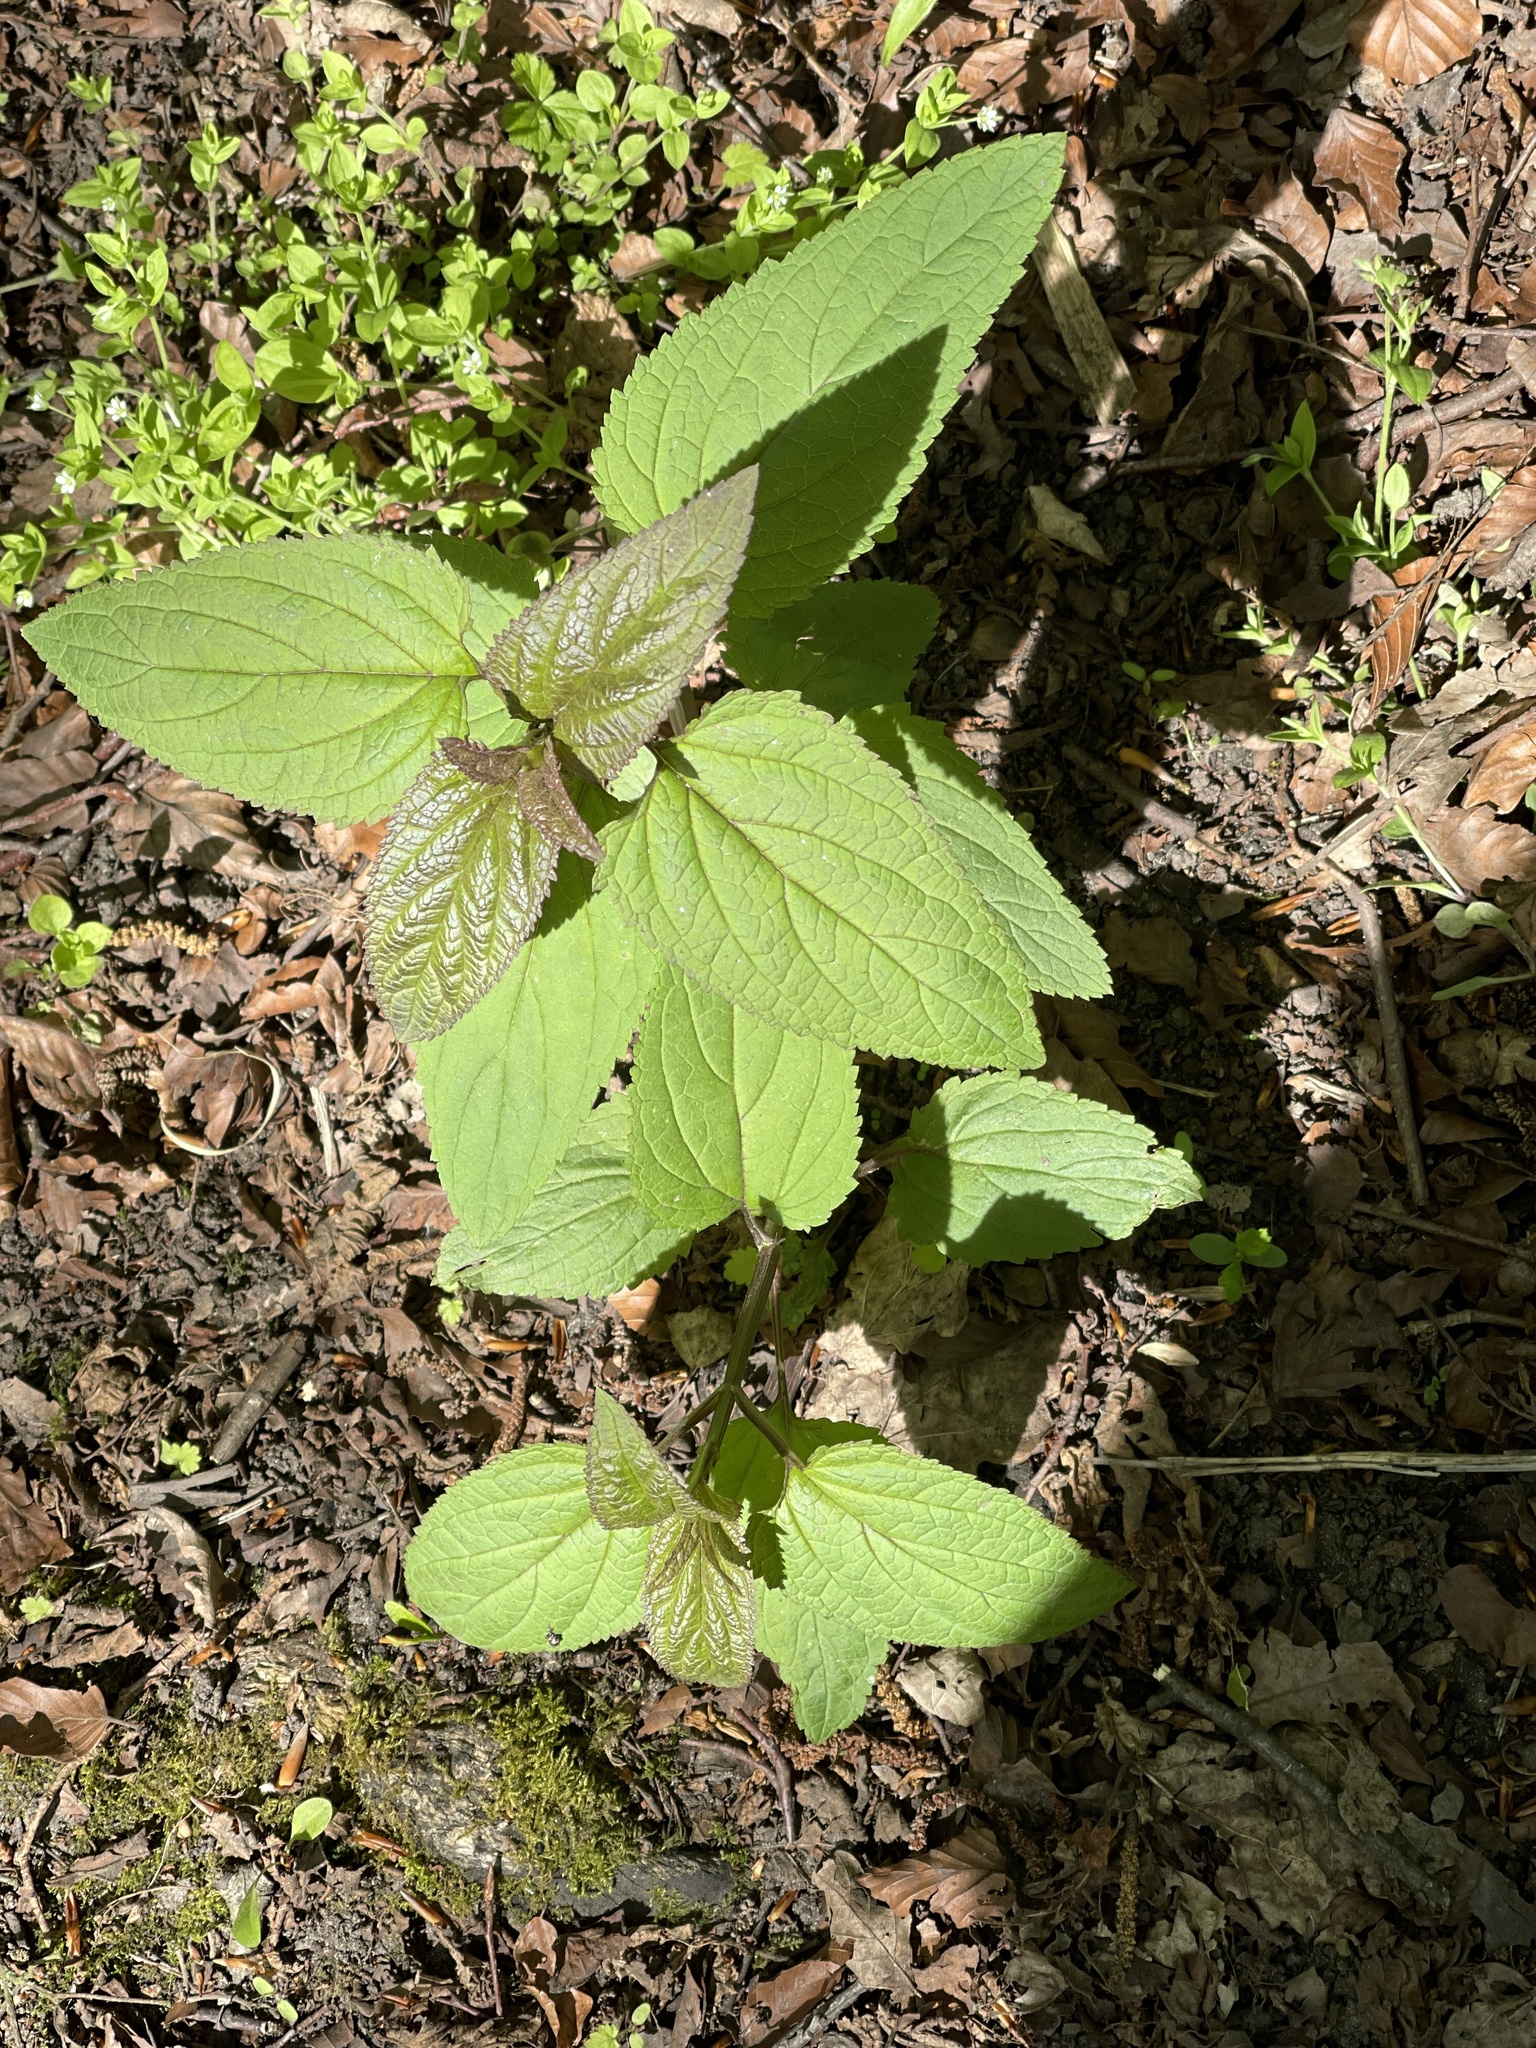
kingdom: Plantae
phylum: Tracheophyta
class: Magnoliopsida
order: Lamiales
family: Scrophulariaceae
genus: Scrophularia
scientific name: Scrophularia nodosa
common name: Common figwort
